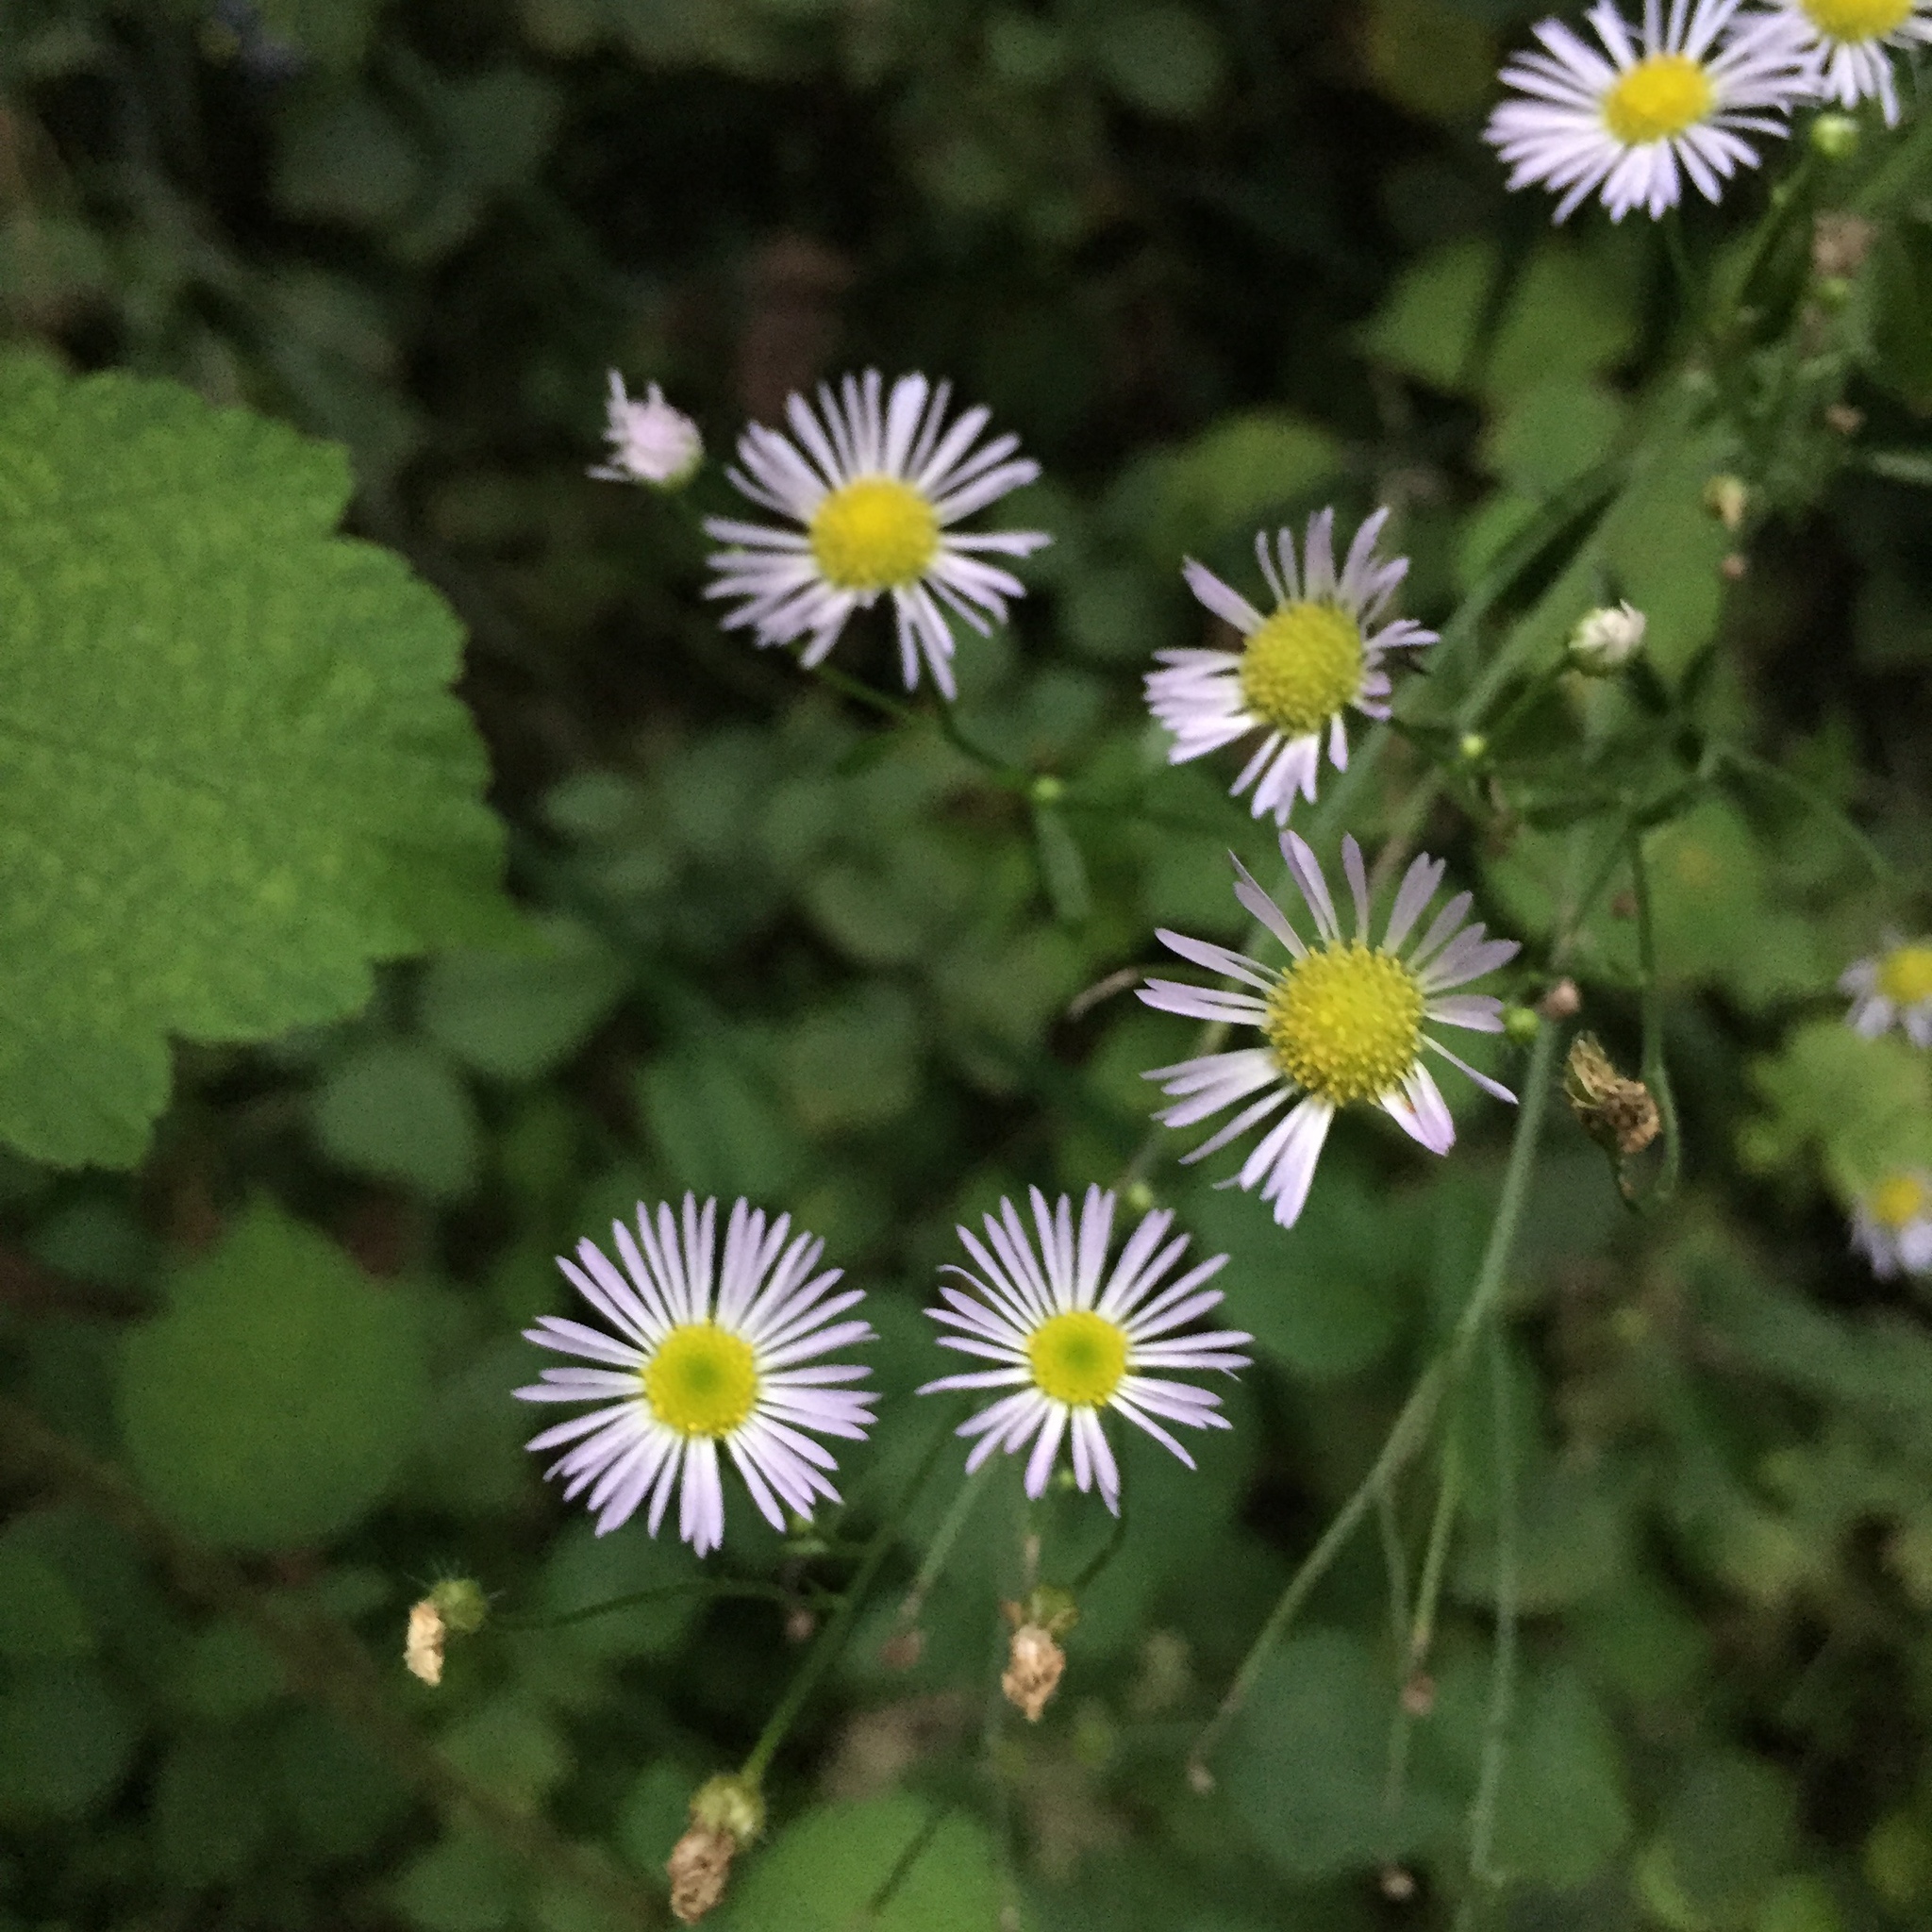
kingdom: Plantae
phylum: Tracheophyta
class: Magnoliopsida
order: Asterales
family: Asteraceae
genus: Erigeron
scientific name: Erigeron annuus
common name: Tall fleabane
